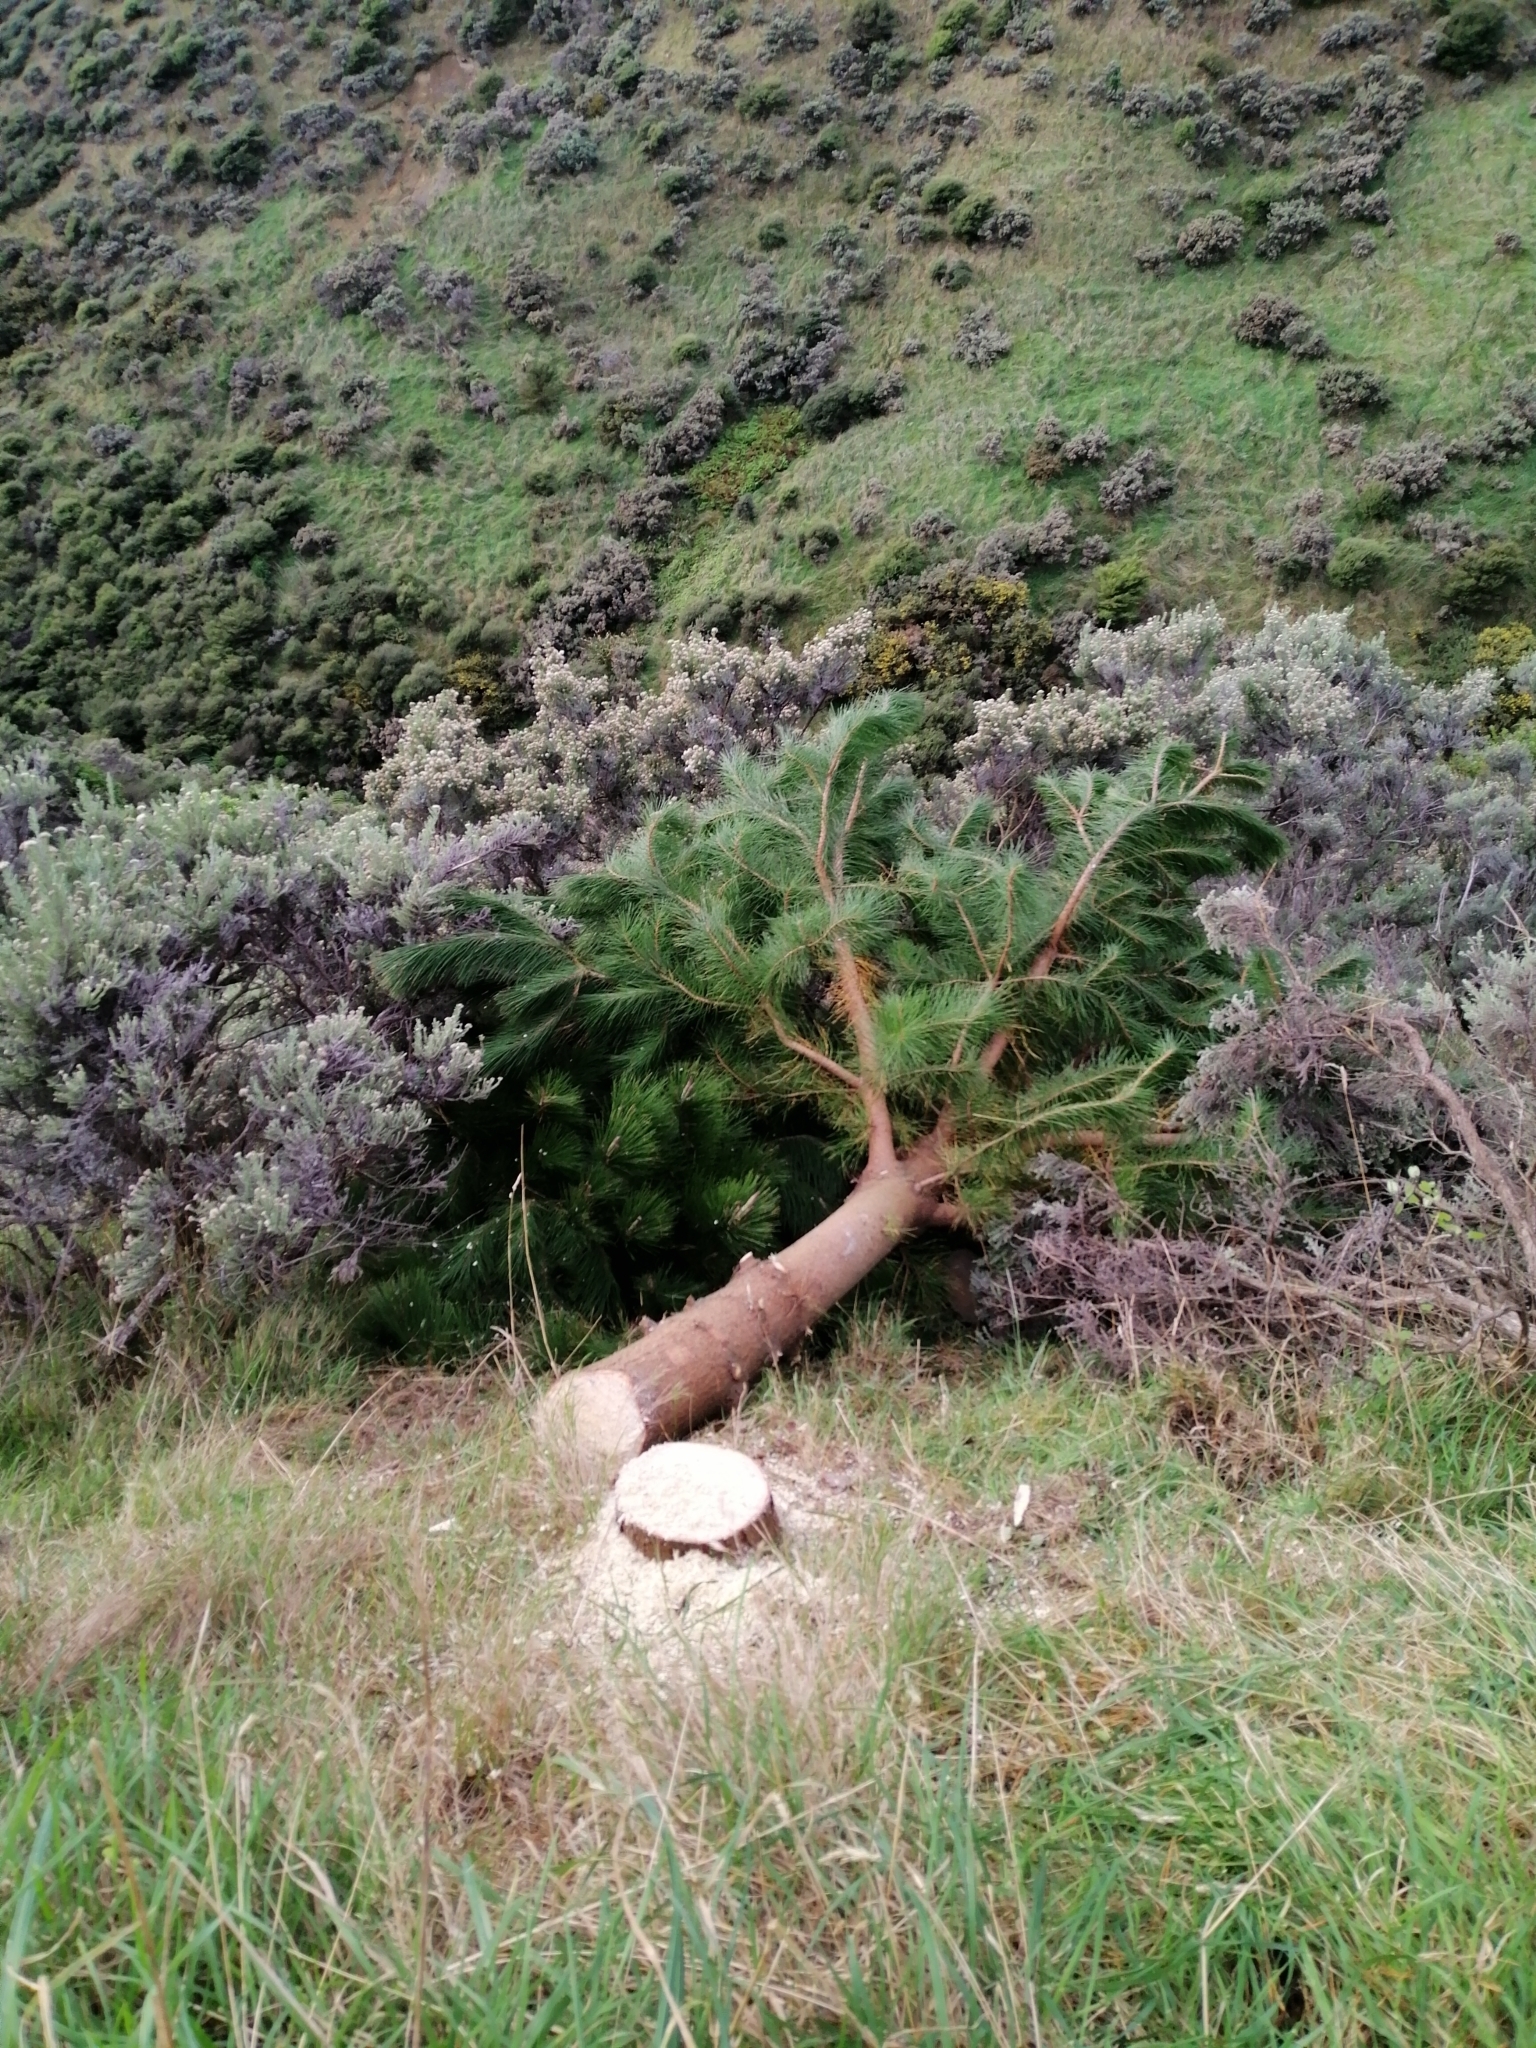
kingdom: Plantae
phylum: Tracheophyta
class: Pinopsida
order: Pinales
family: Pinaceae
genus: Pinus
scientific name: Pinus radiata
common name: Monterey pine
